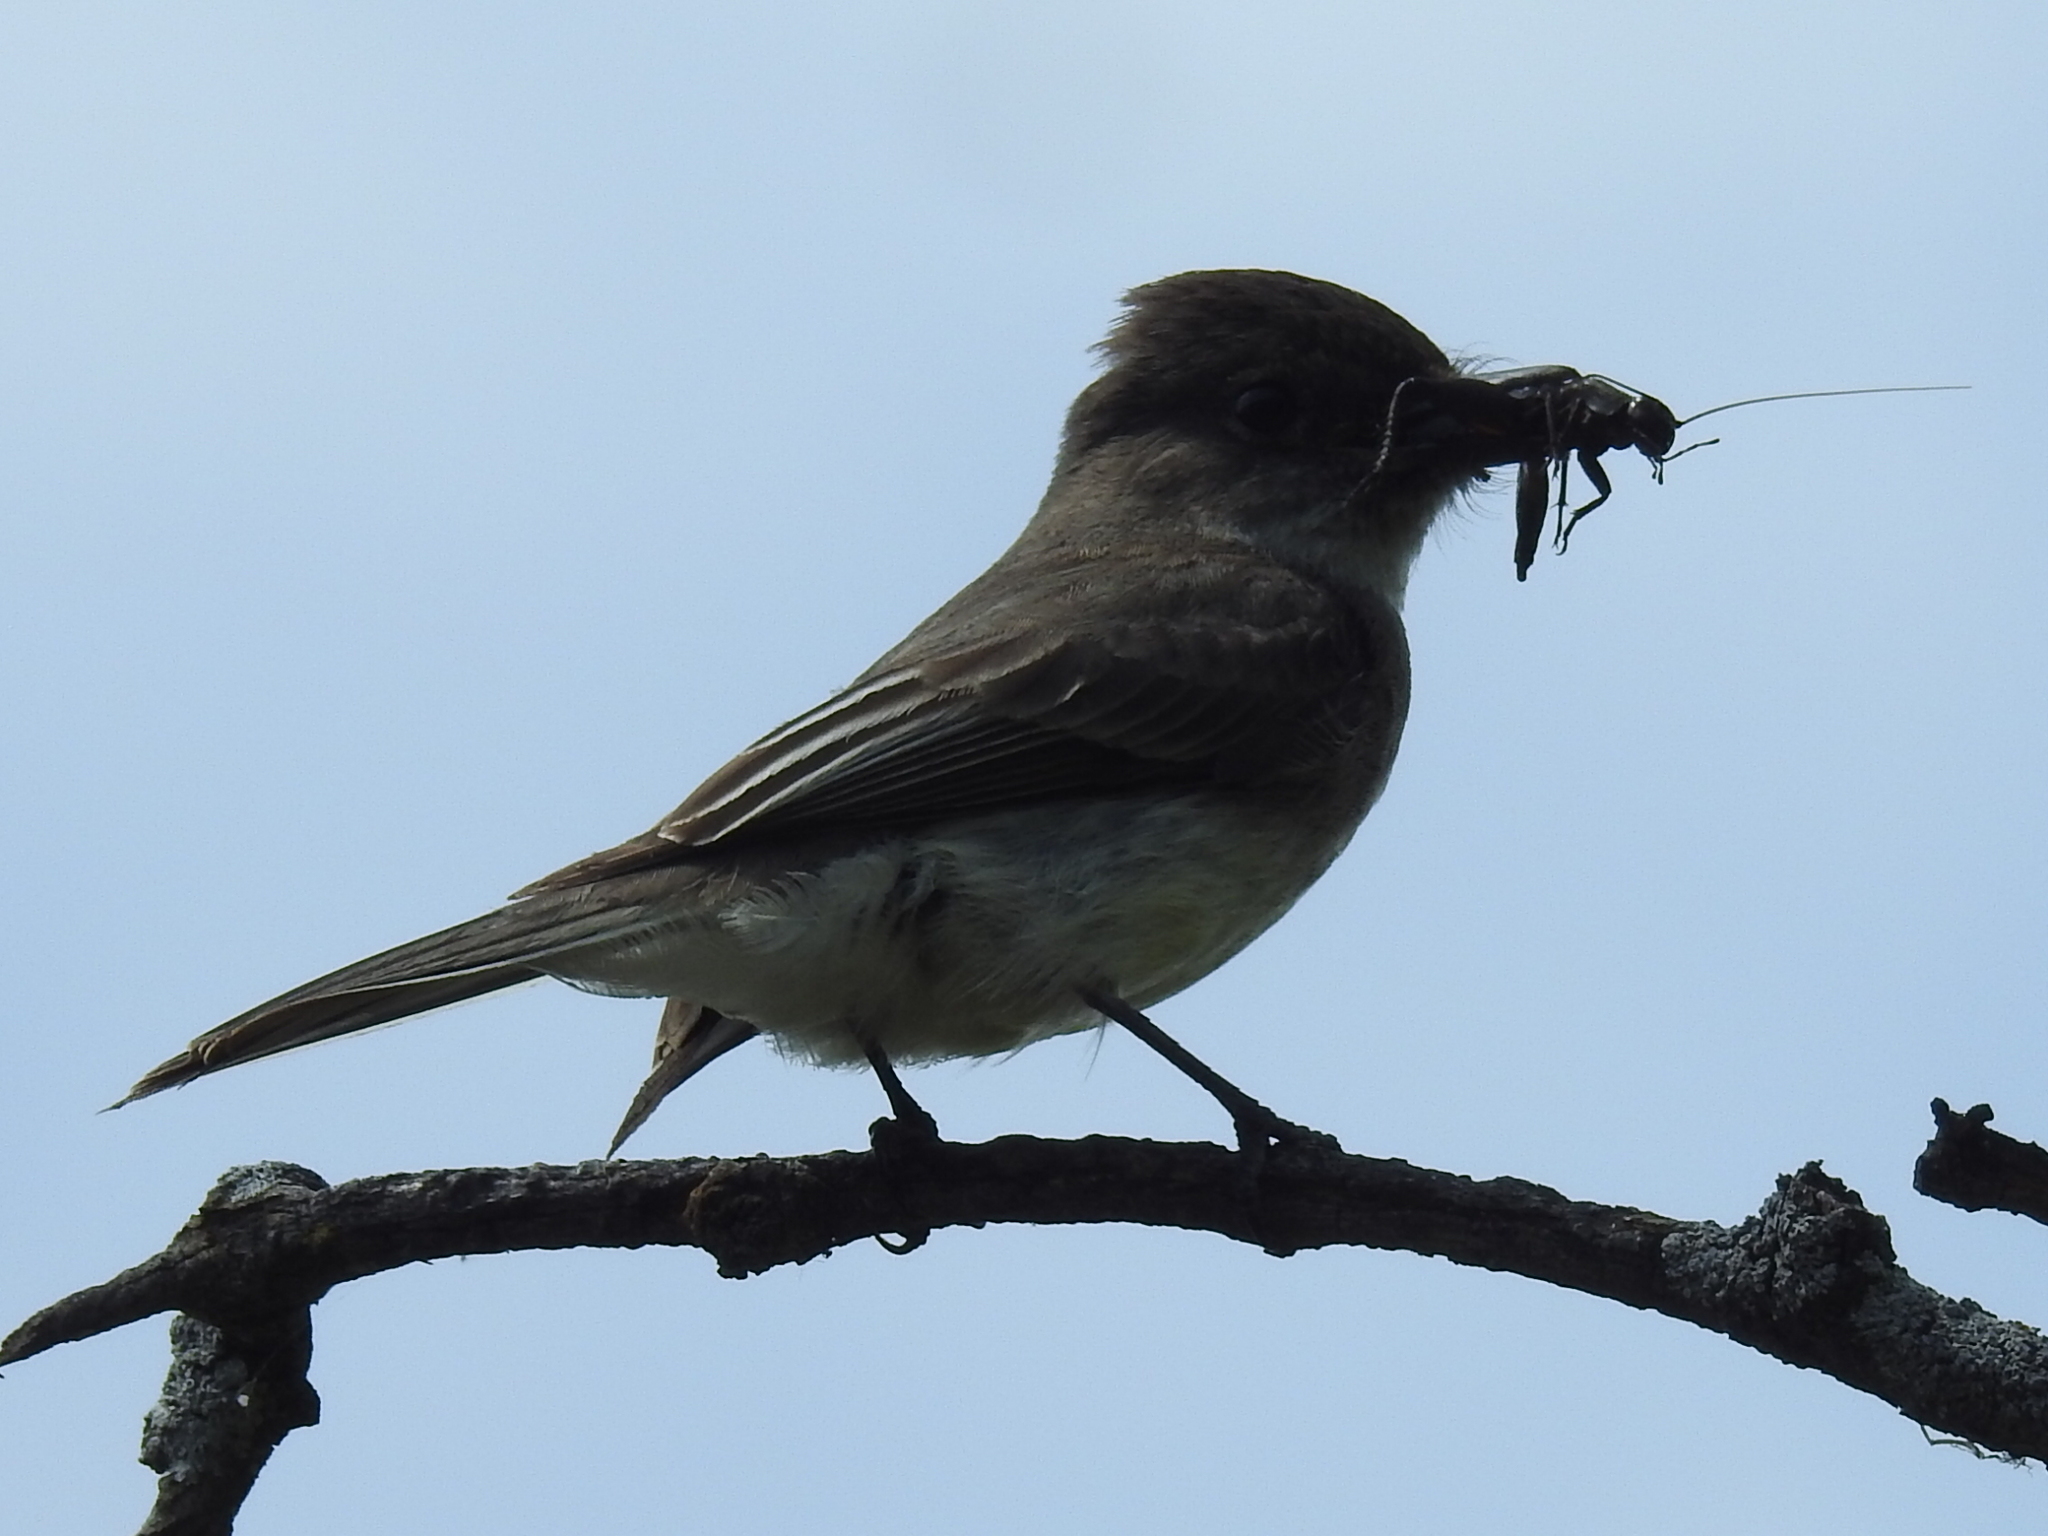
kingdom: Animalia
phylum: Chordata
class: Aves
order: Passeriformes
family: Tyrannidae
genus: Sayornis
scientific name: Sayornis phoebe
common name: Eastern phoebe
